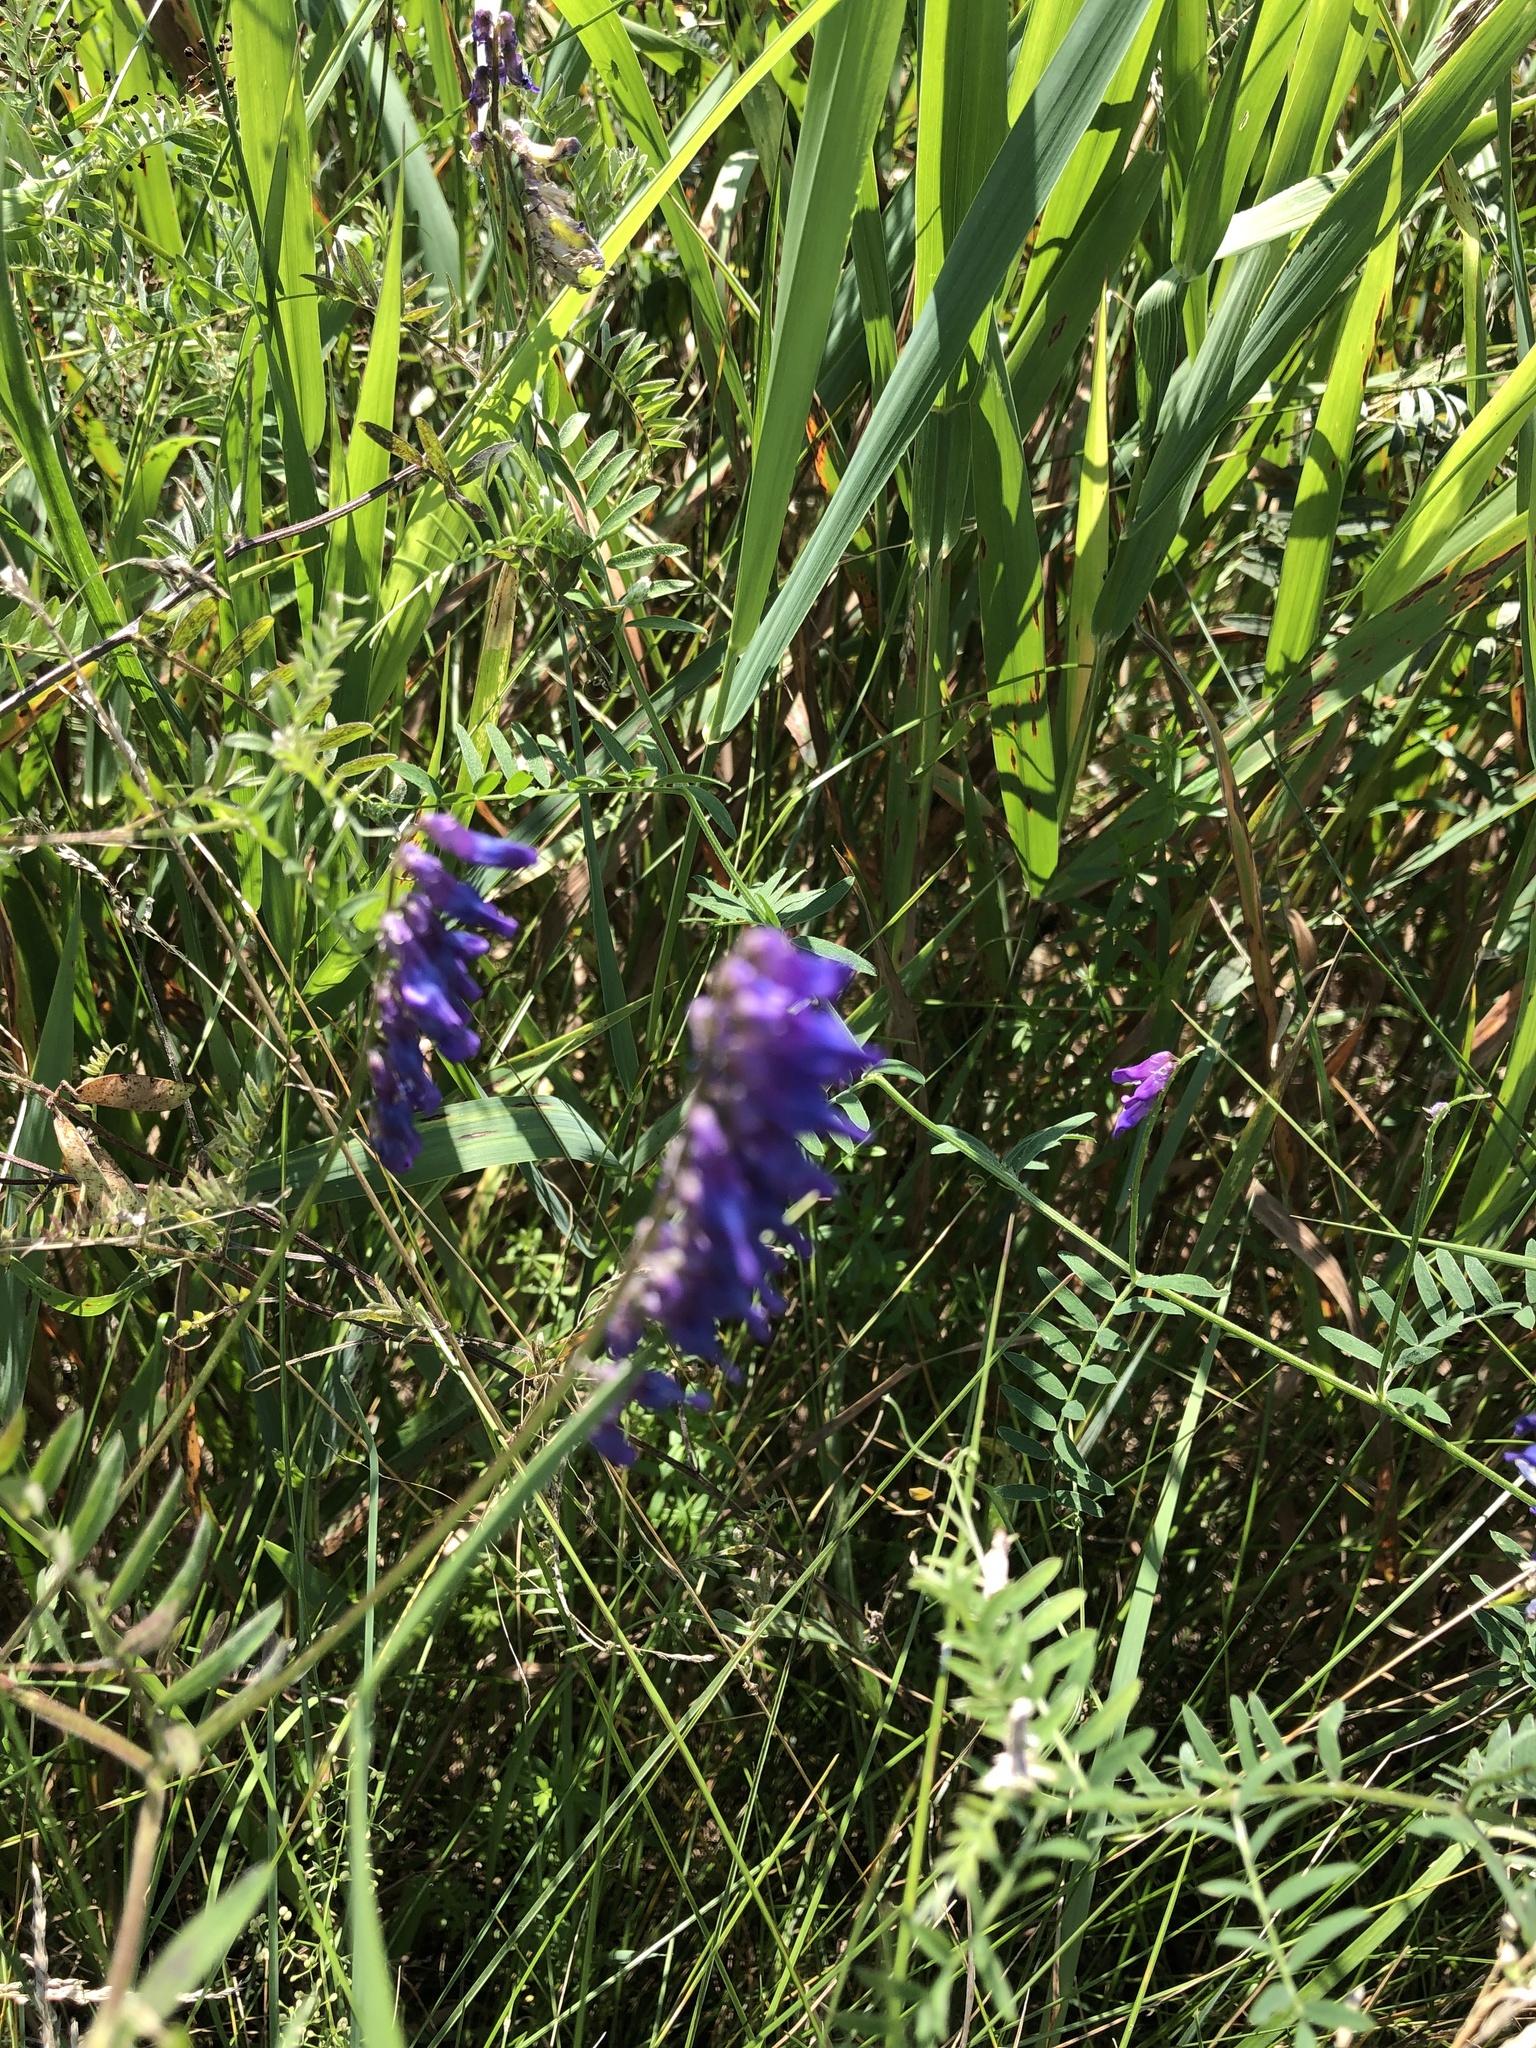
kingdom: Plantae
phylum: Tracheophyta
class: Magnoliopsida
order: Fabales
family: Fabaceae
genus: Vicia
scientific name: Vicia cracca
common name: Bird vetch
